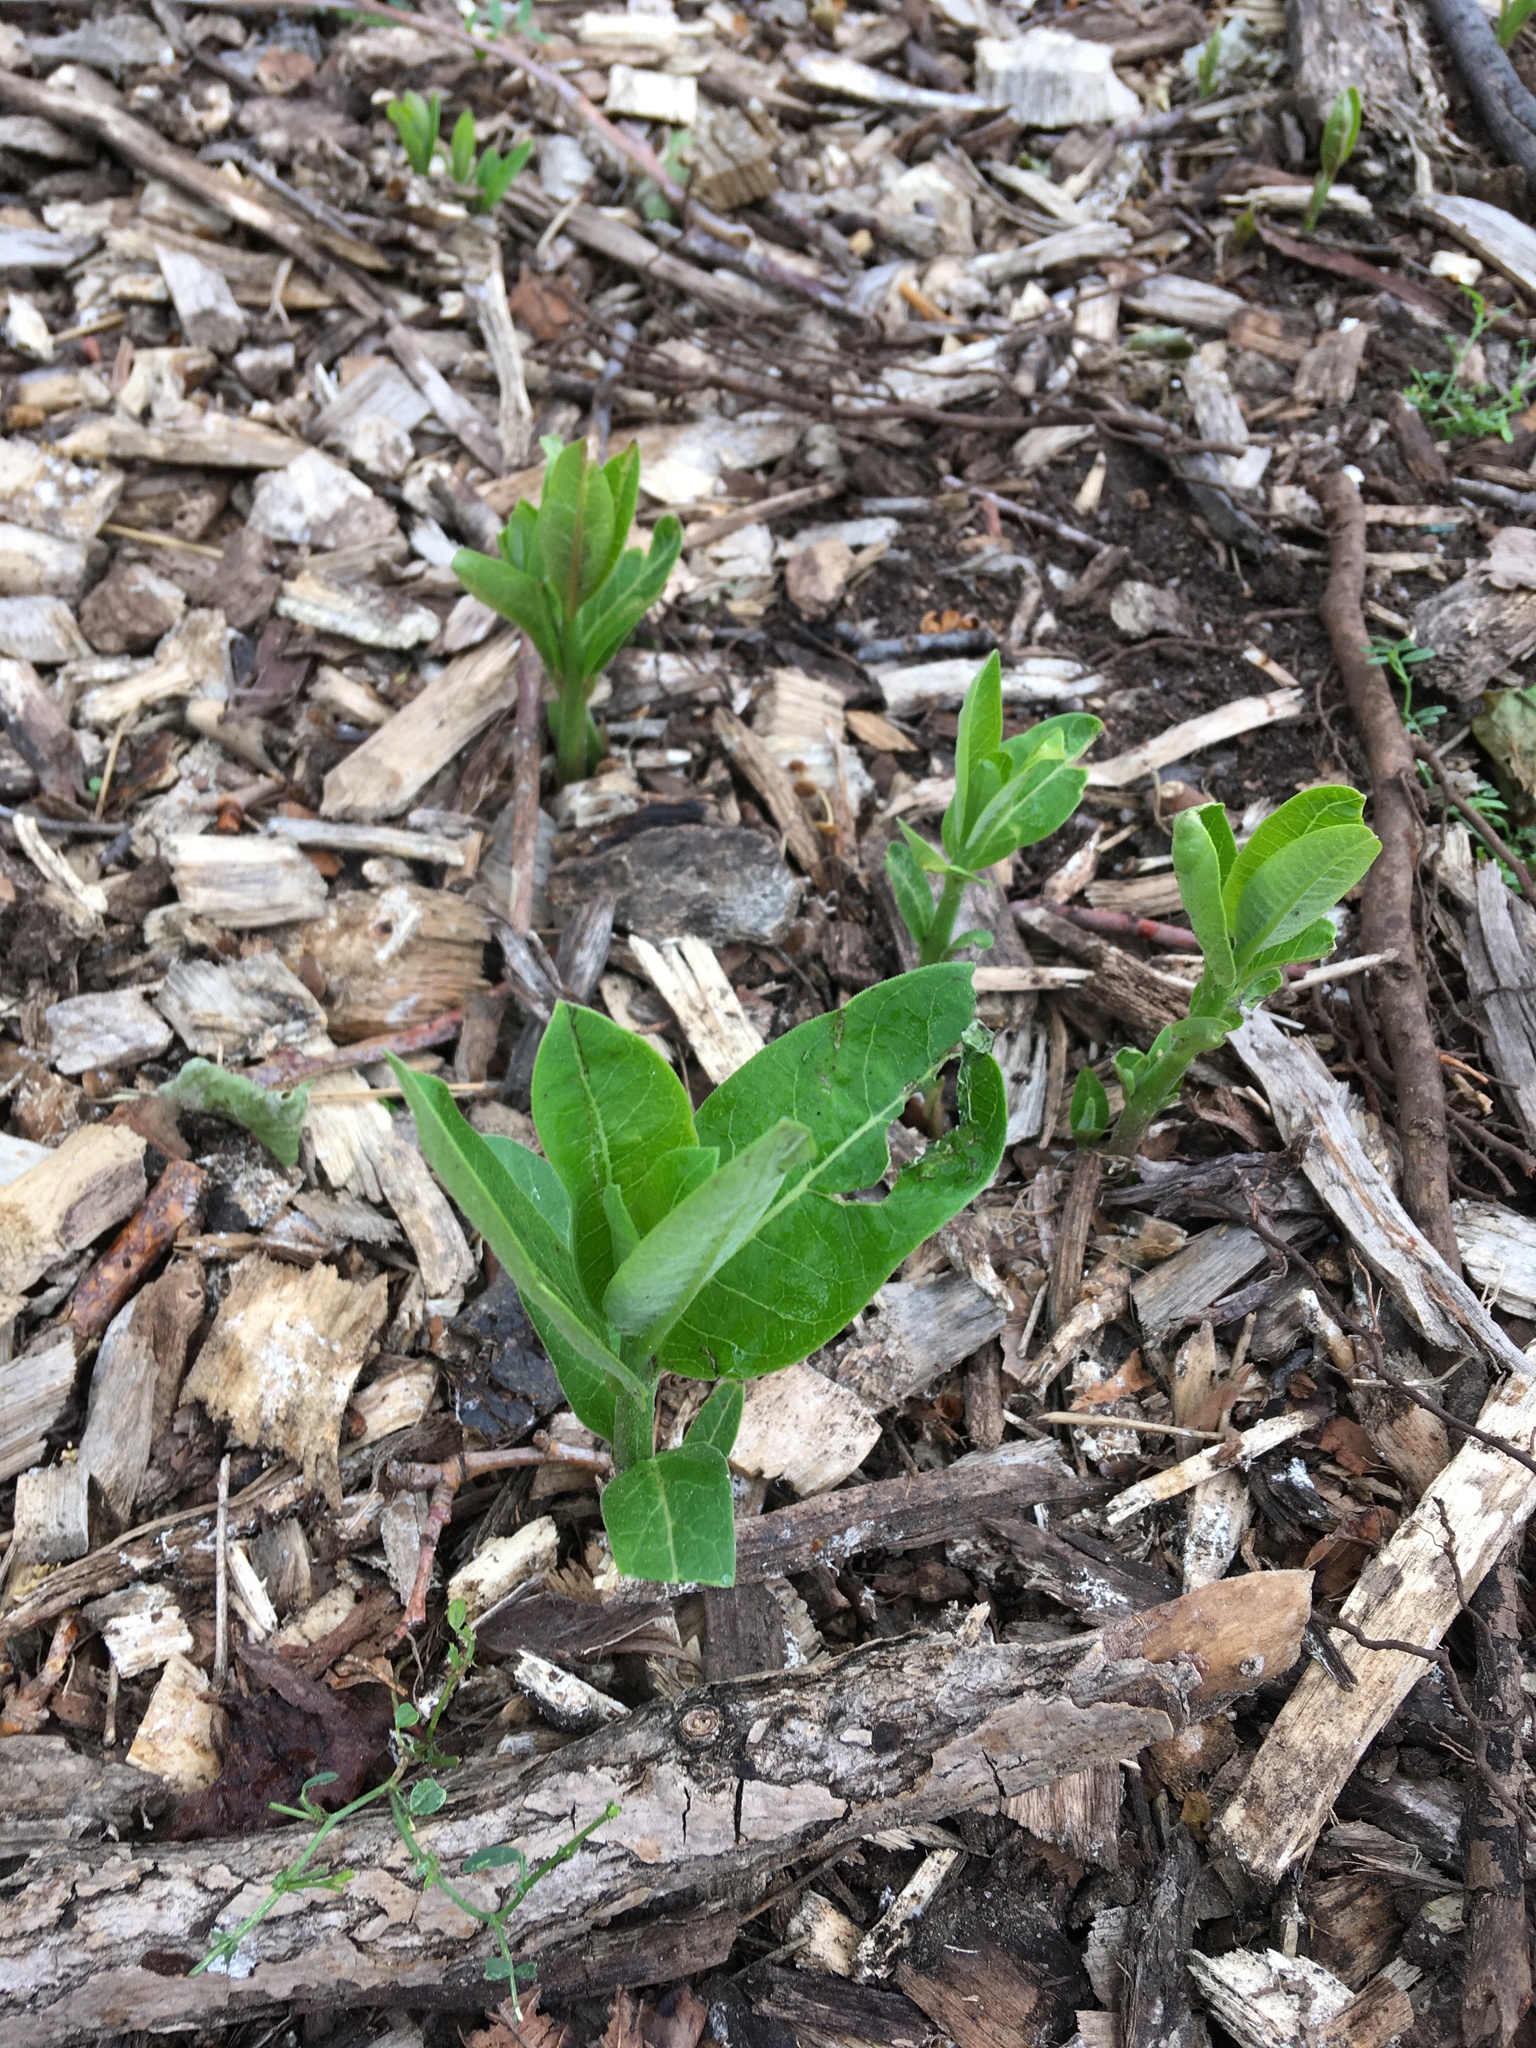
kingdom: Plantae
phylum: Tracheophyta
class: Magnoliopsida
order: Gentianales
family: Apocynaceae
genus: Asclepias
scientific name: Asclepias syriaca
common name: Common milkweed
